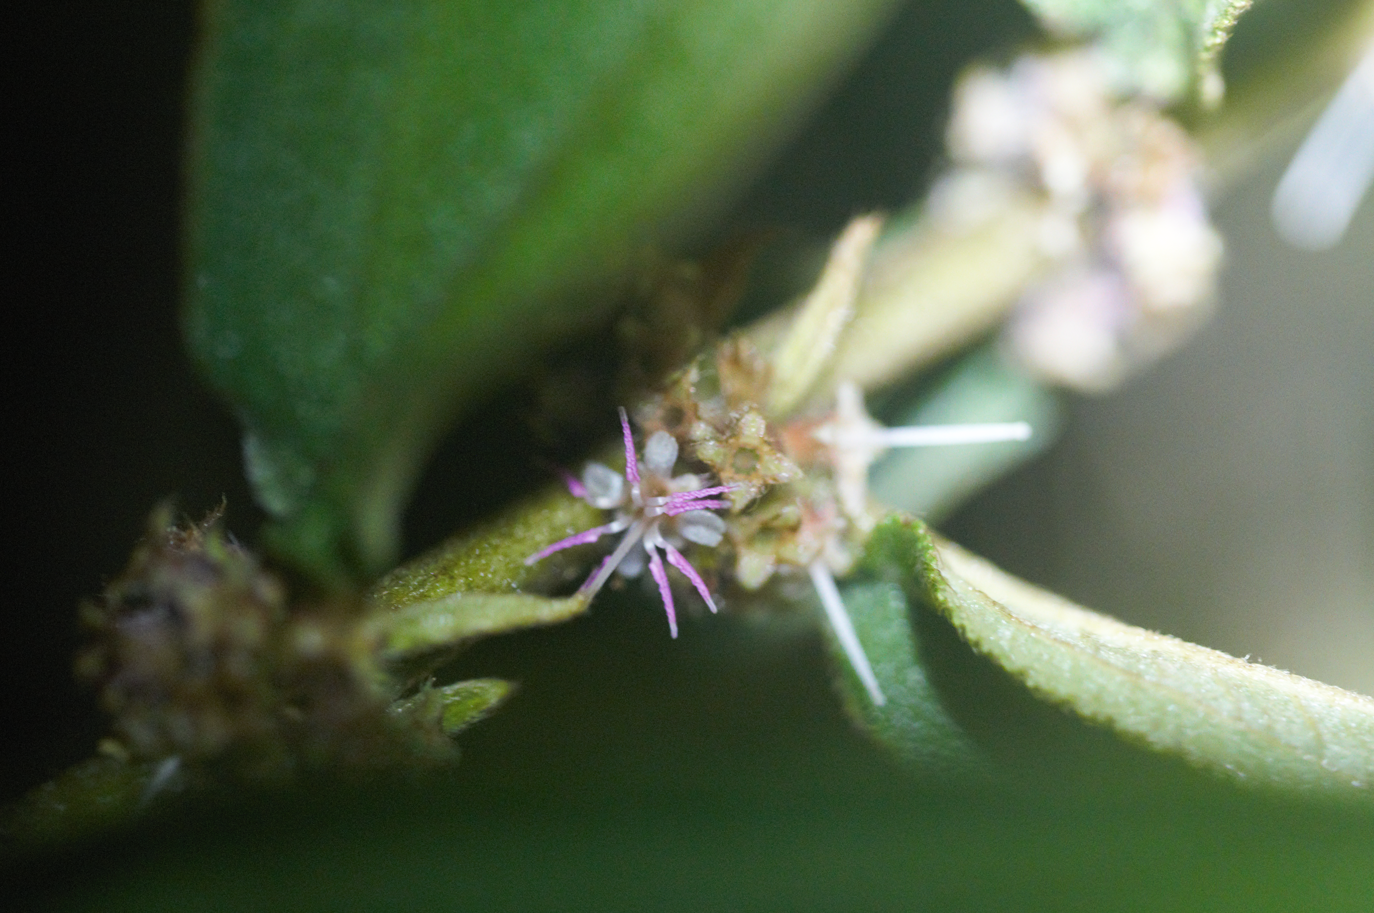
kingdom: Plantae
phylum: Tracheophyta
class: Magnoliopsida
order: Myrtales
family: Melastomataceae
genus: Miconia
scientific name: Miconia sericea
